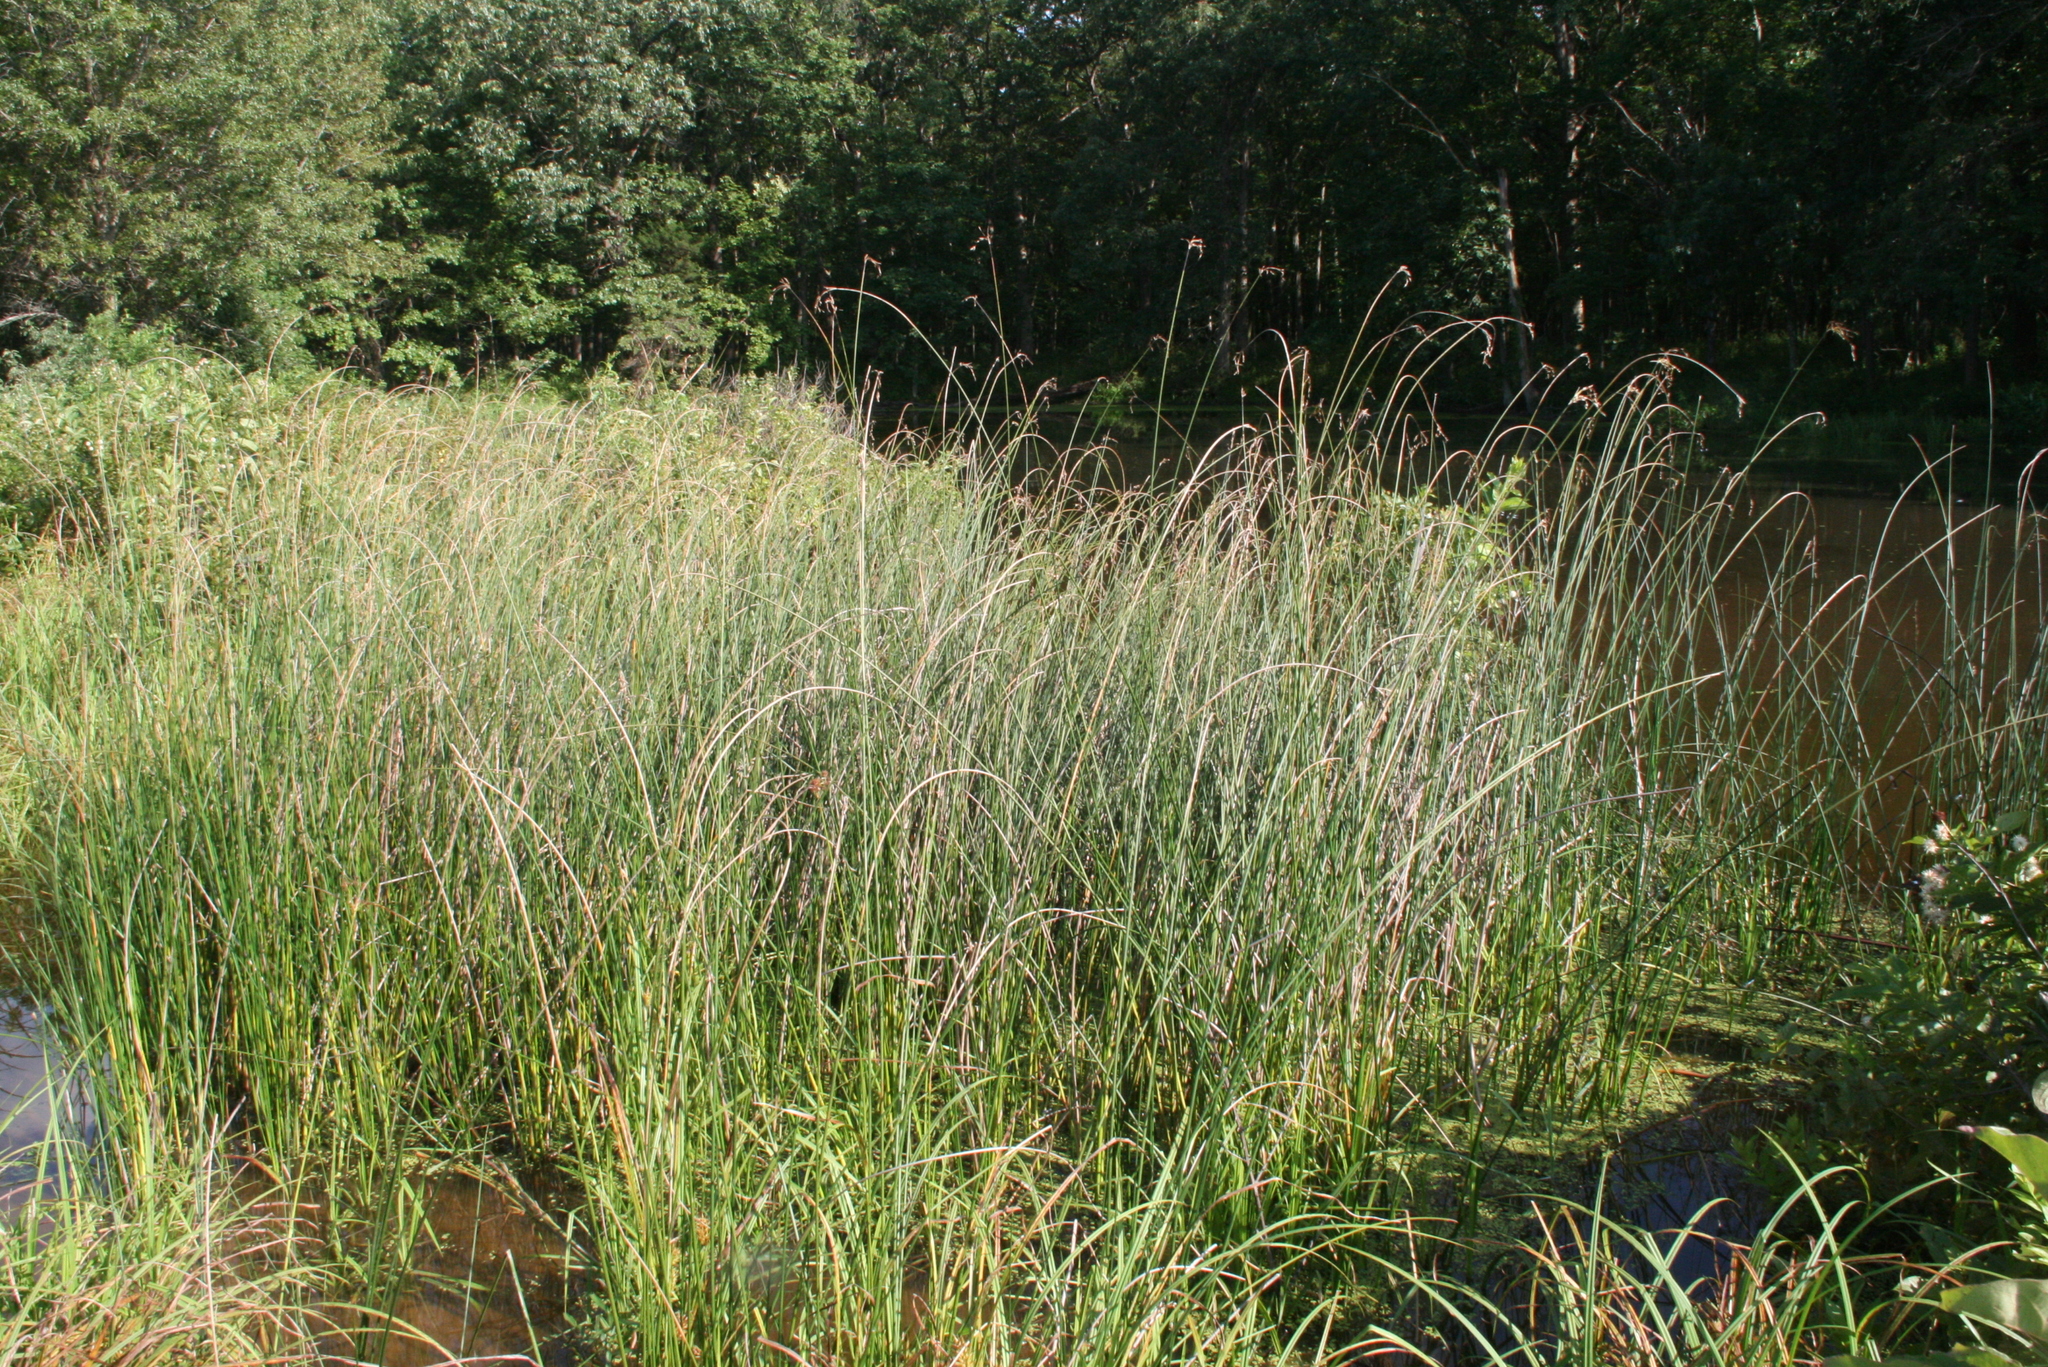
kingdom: Plantae
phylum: Tracheophyta
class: Liliopsida
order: Poales
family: Cyperaceae
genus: Schoenoplectus
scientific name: Schoenoplectus heterochaetus
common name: Pale great bulrush
